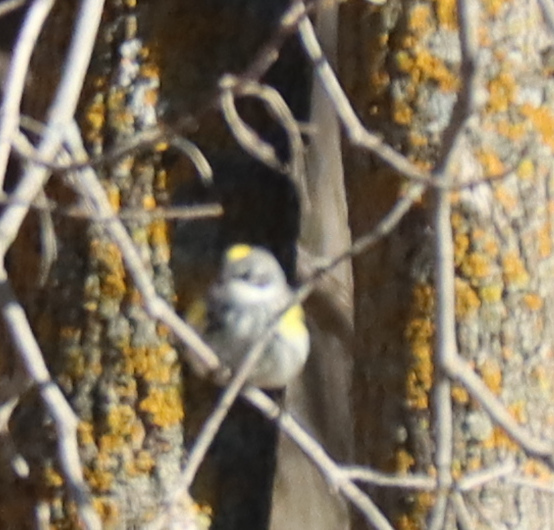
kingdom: Animalia
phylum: Chordata
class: Aves
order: Passeriformes
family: Parulidae
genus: Setophaga
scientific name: Setophaga coronata
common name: Myrtle warbler
